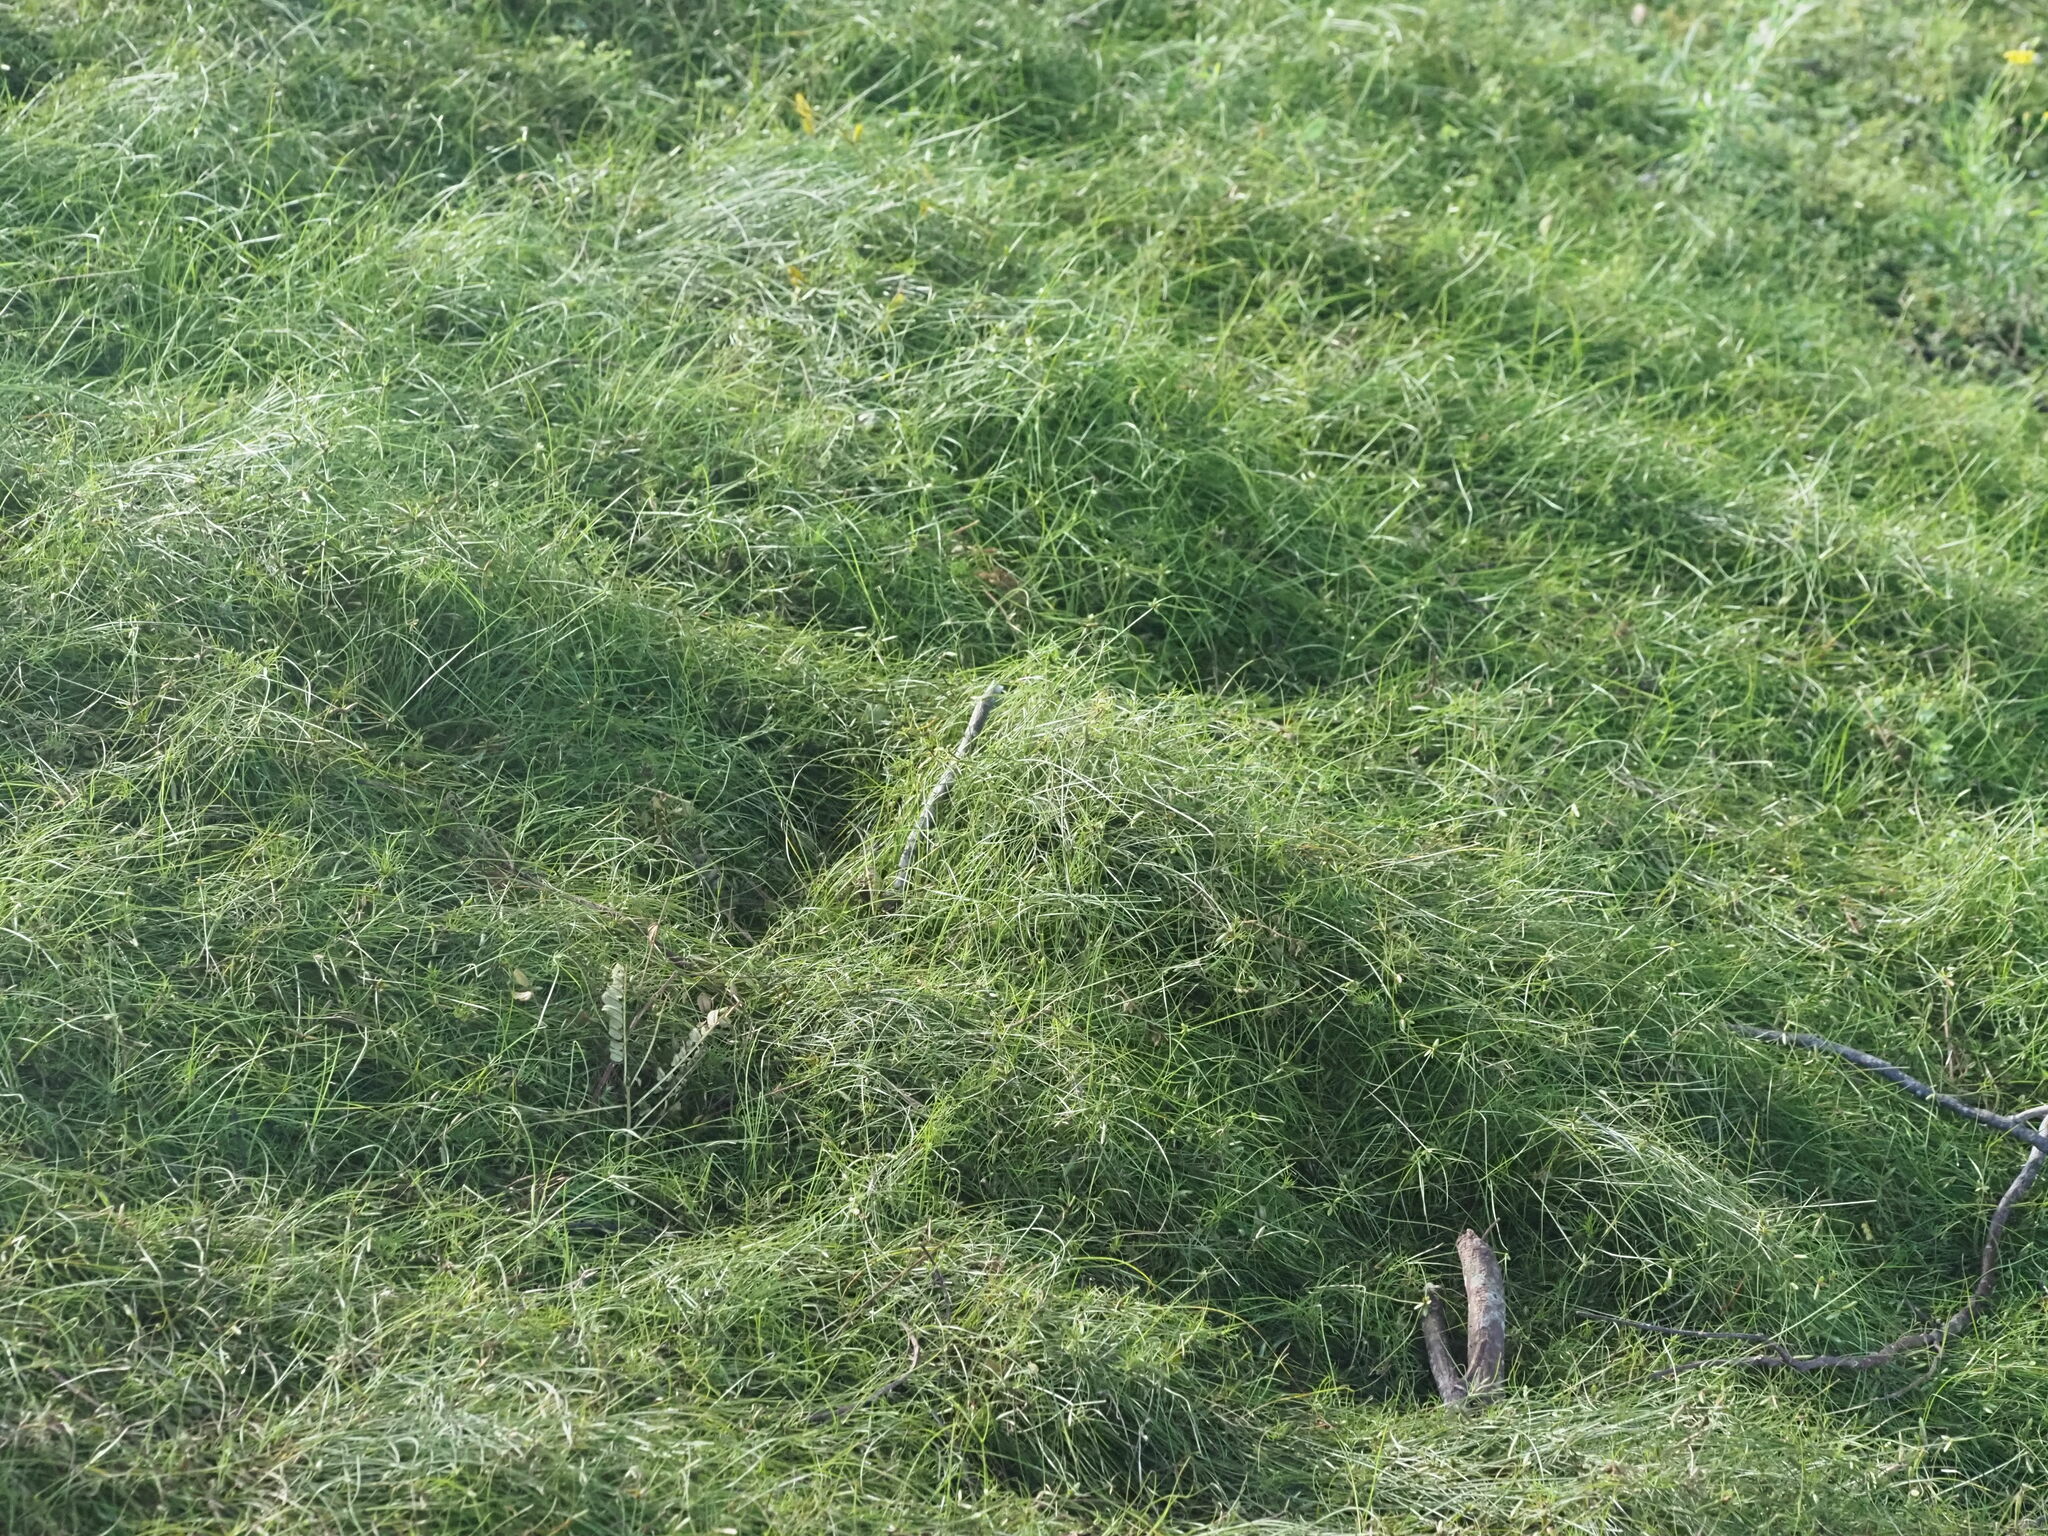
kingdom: Plantae
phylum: Tracheophyta
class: Liliopsida
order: Poales
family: Cyperaceae
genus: Cyperus
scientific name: Cyperus gracilis
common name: Slimjim flatsedge
